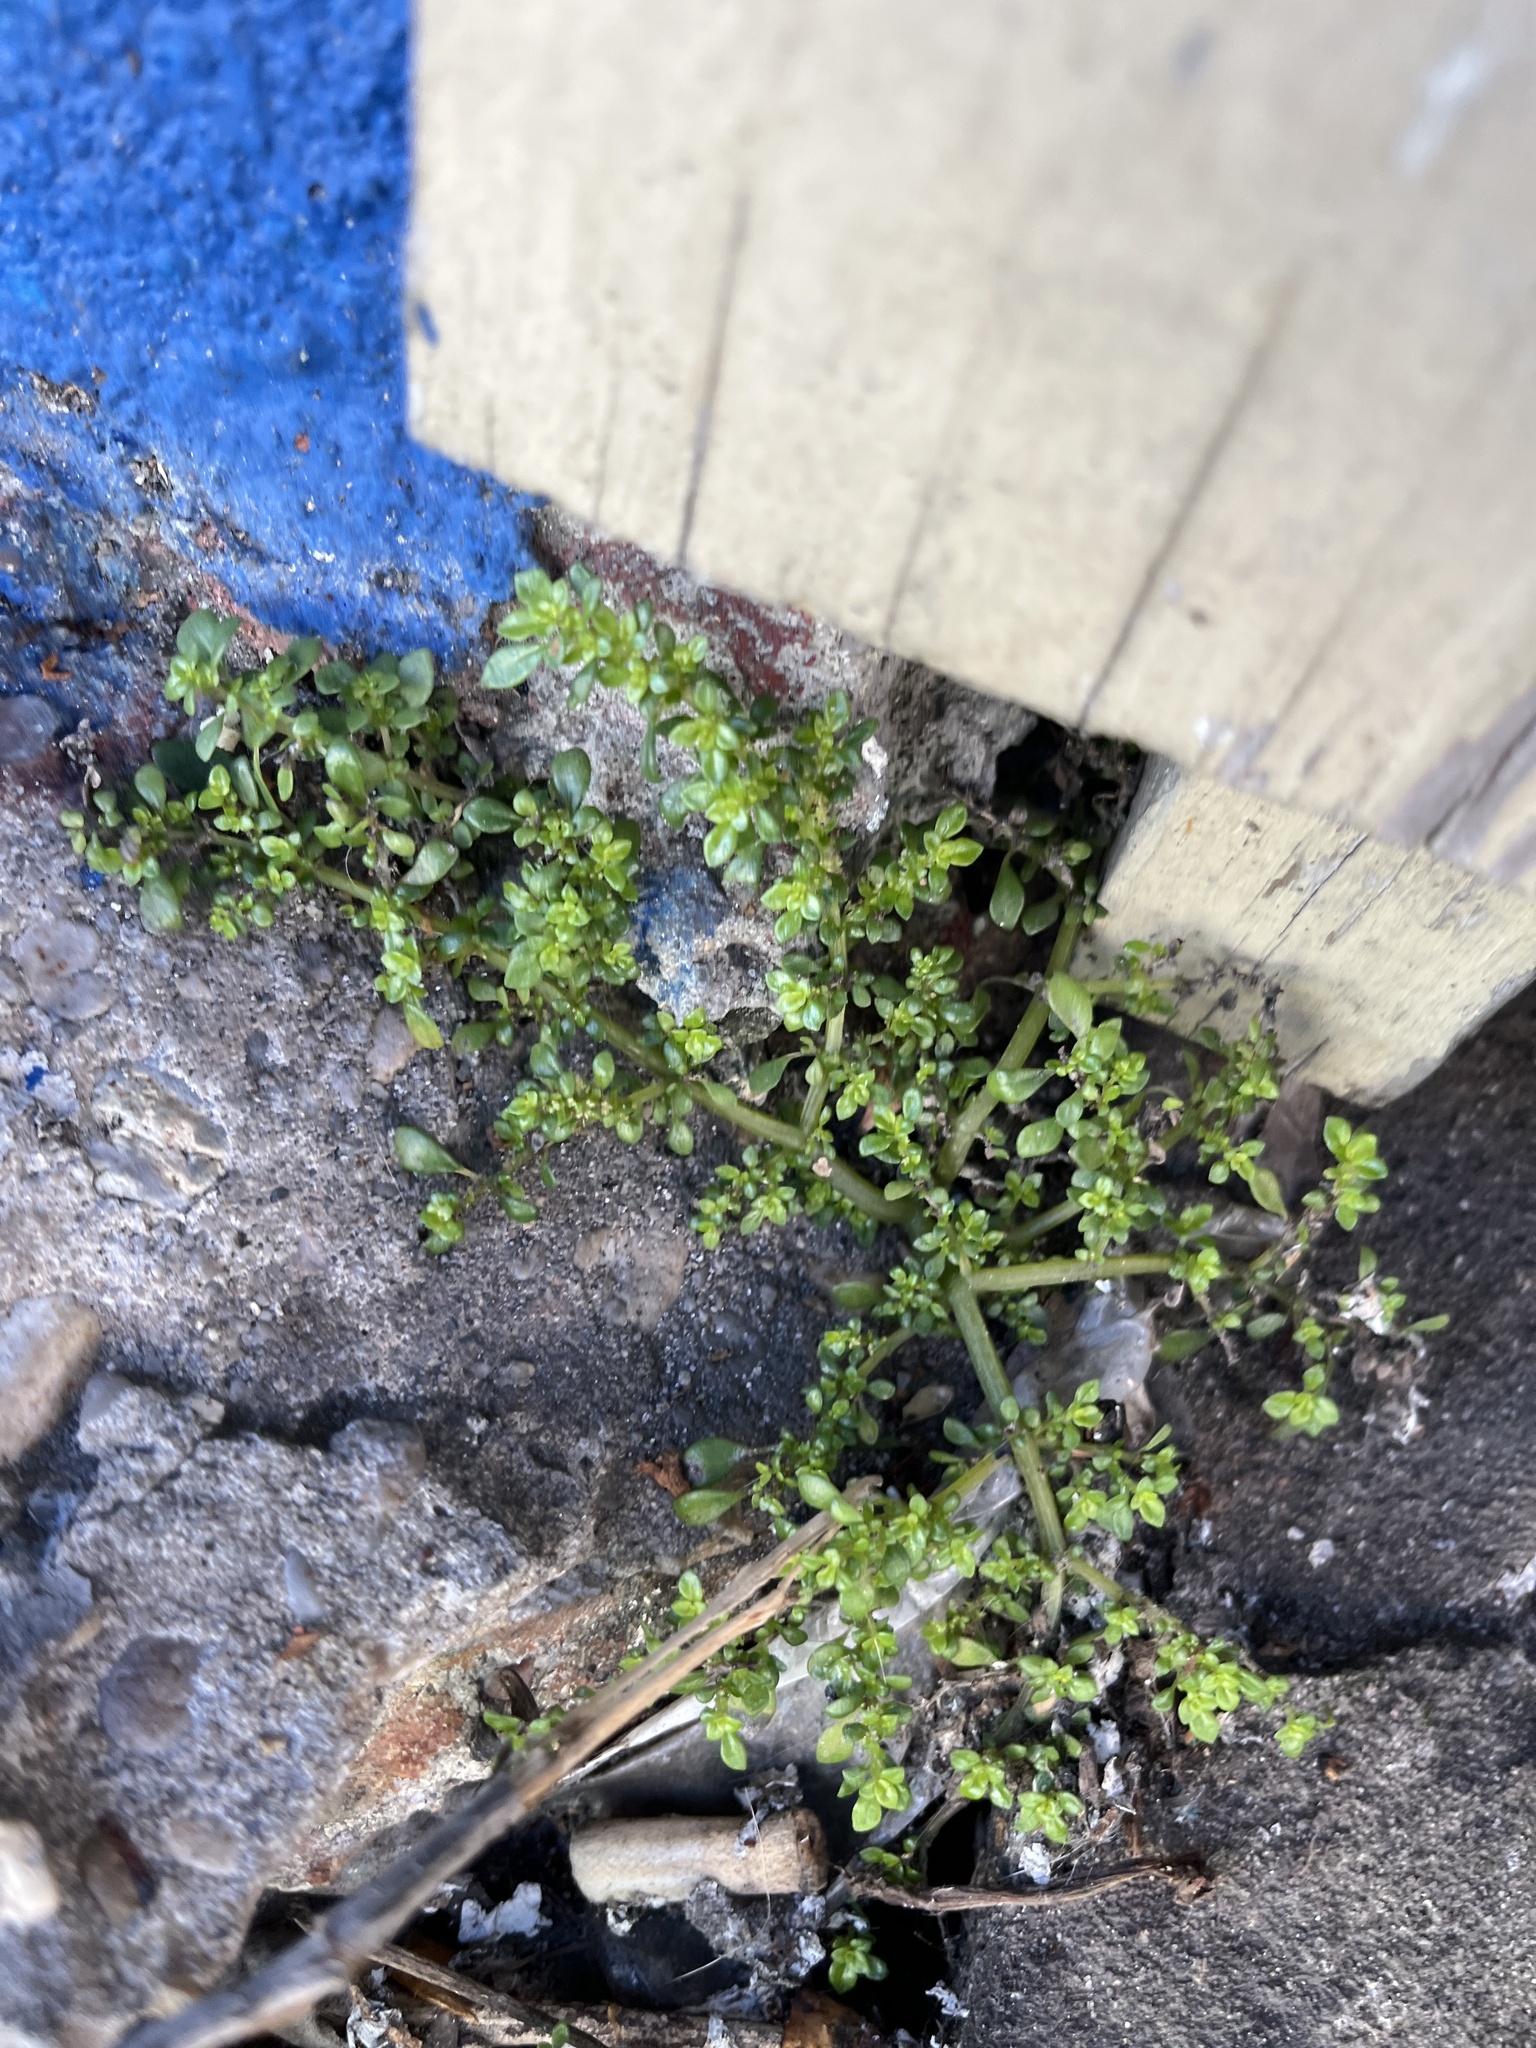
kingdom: Plantae
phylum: Tracheophyta
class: Magnoliopsida
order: Rosales
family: Urticaceae
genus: Pilea
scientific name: Pilea microphylla
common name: Artillery-plant
